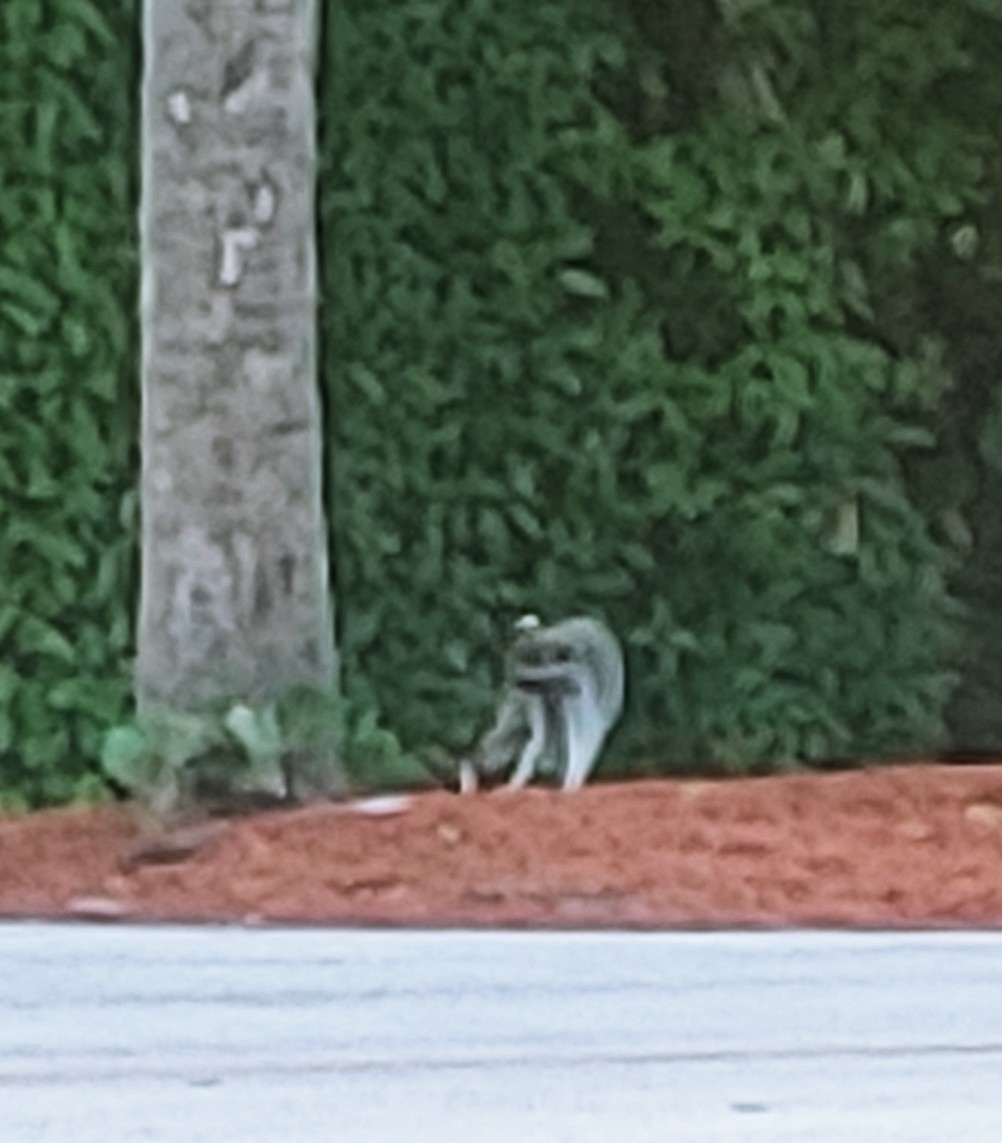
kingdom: Animalia
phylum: Chordata
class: Mammalia
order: Carnivora
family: Procyonidae
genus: Procyon
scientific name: Procyon lotor
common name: Raccoon
